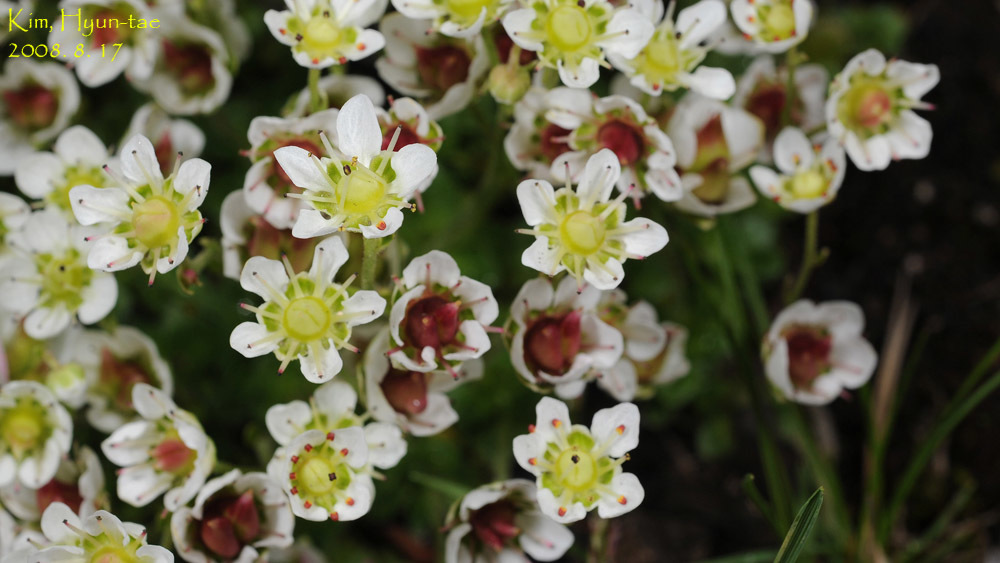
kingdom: Plantae
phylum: Tracheophyta
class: Magnoliopsida
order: Saxifragales
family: Saxifragaceae
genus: Micranthes
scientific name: Micranthes merkii
